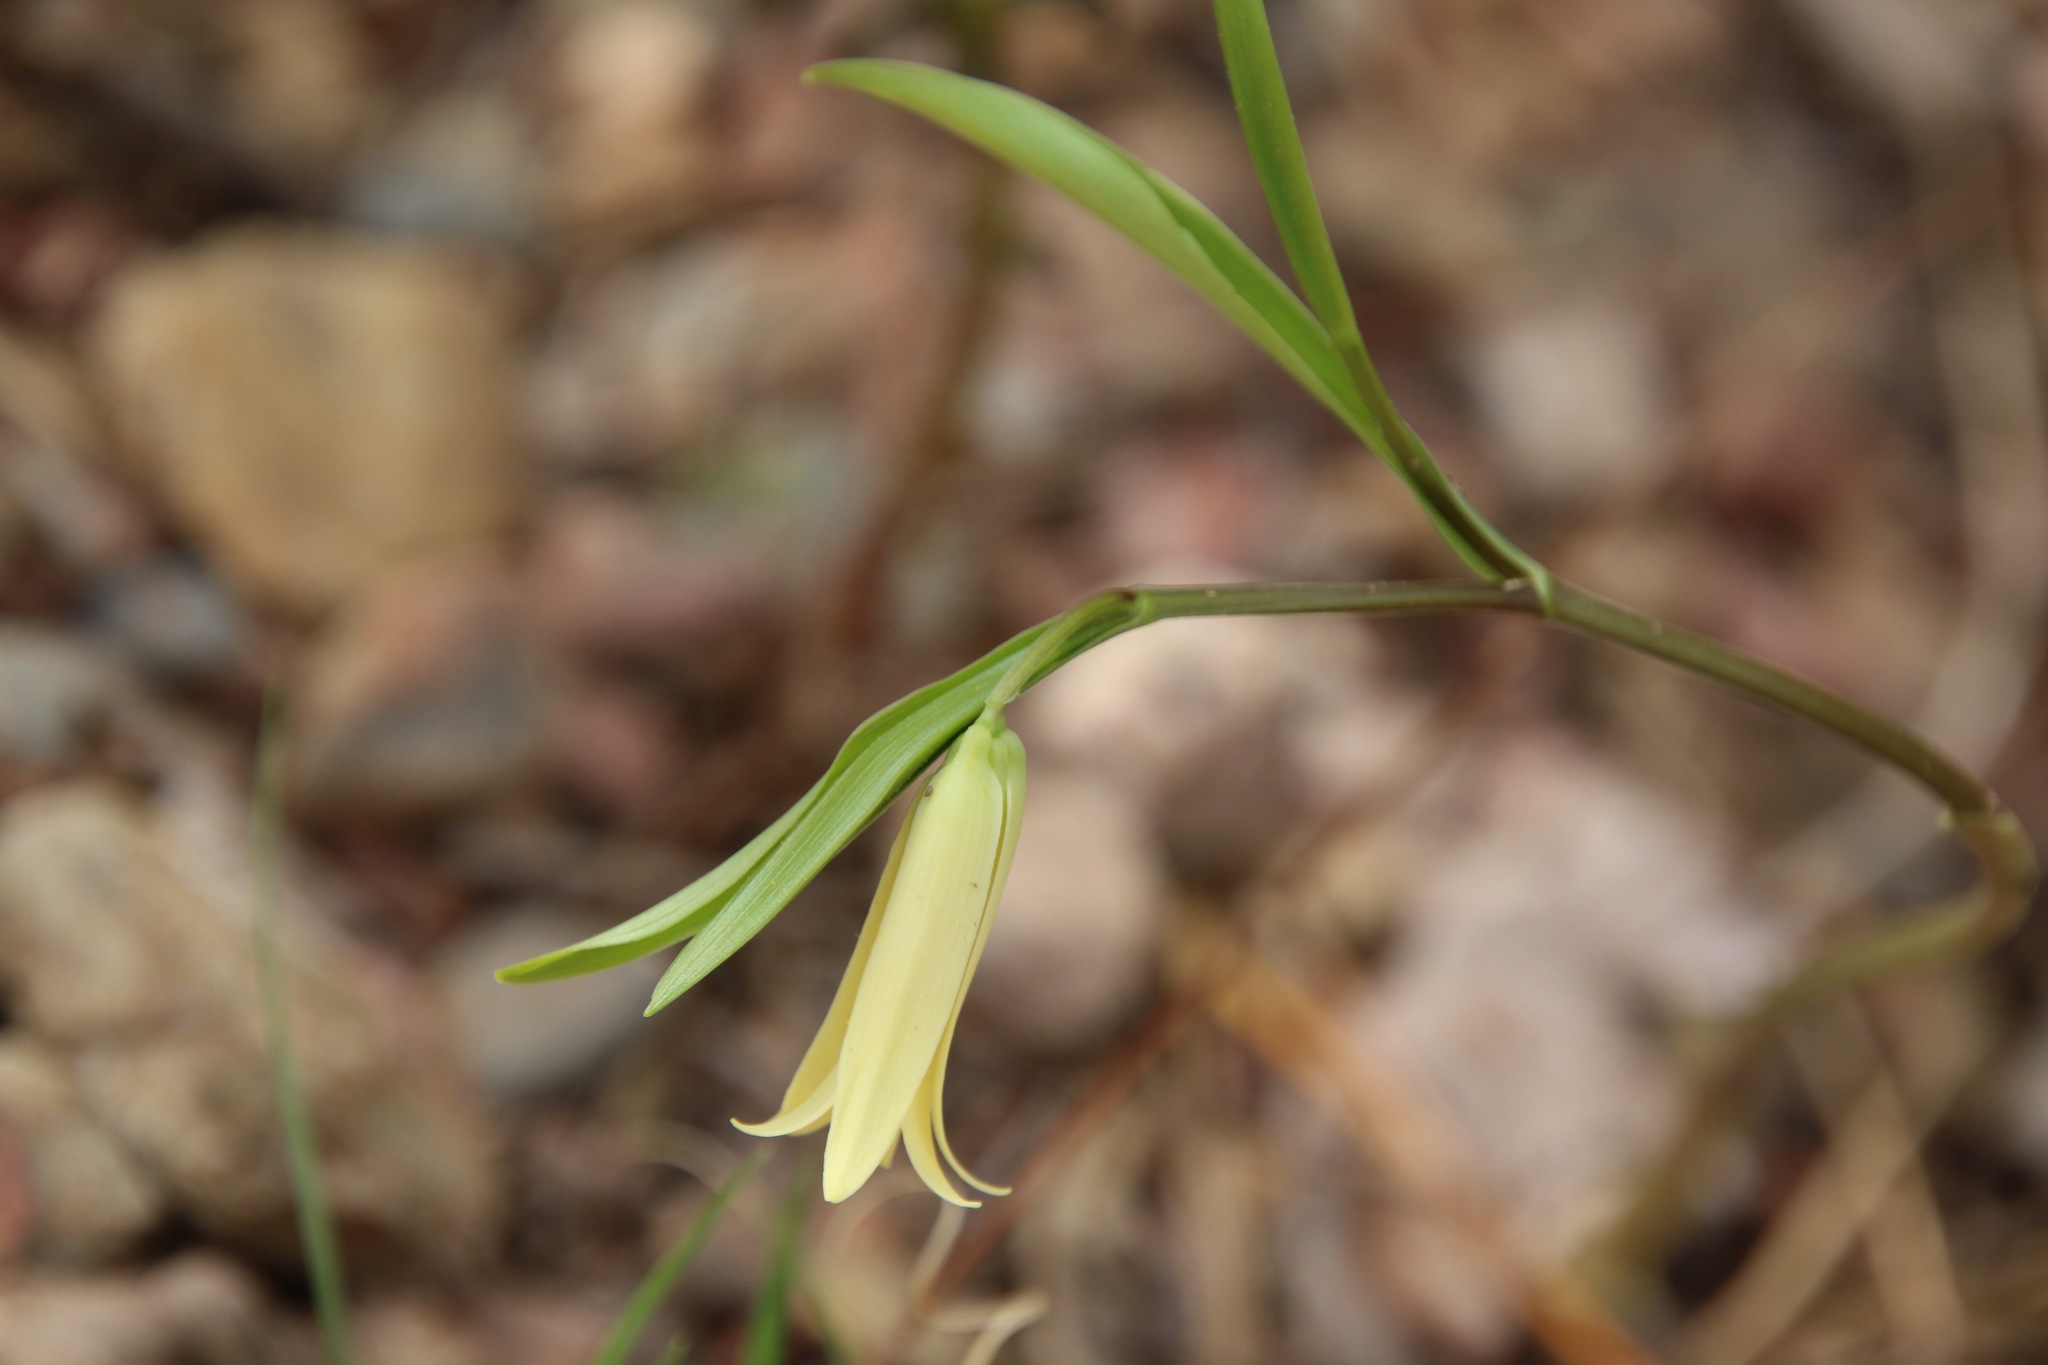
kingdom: Plantae
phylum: Tracheophyta
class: Liliopsida
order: Liliales
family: Colchicaceae
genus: Uvularia
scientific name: Uvularia puberula
